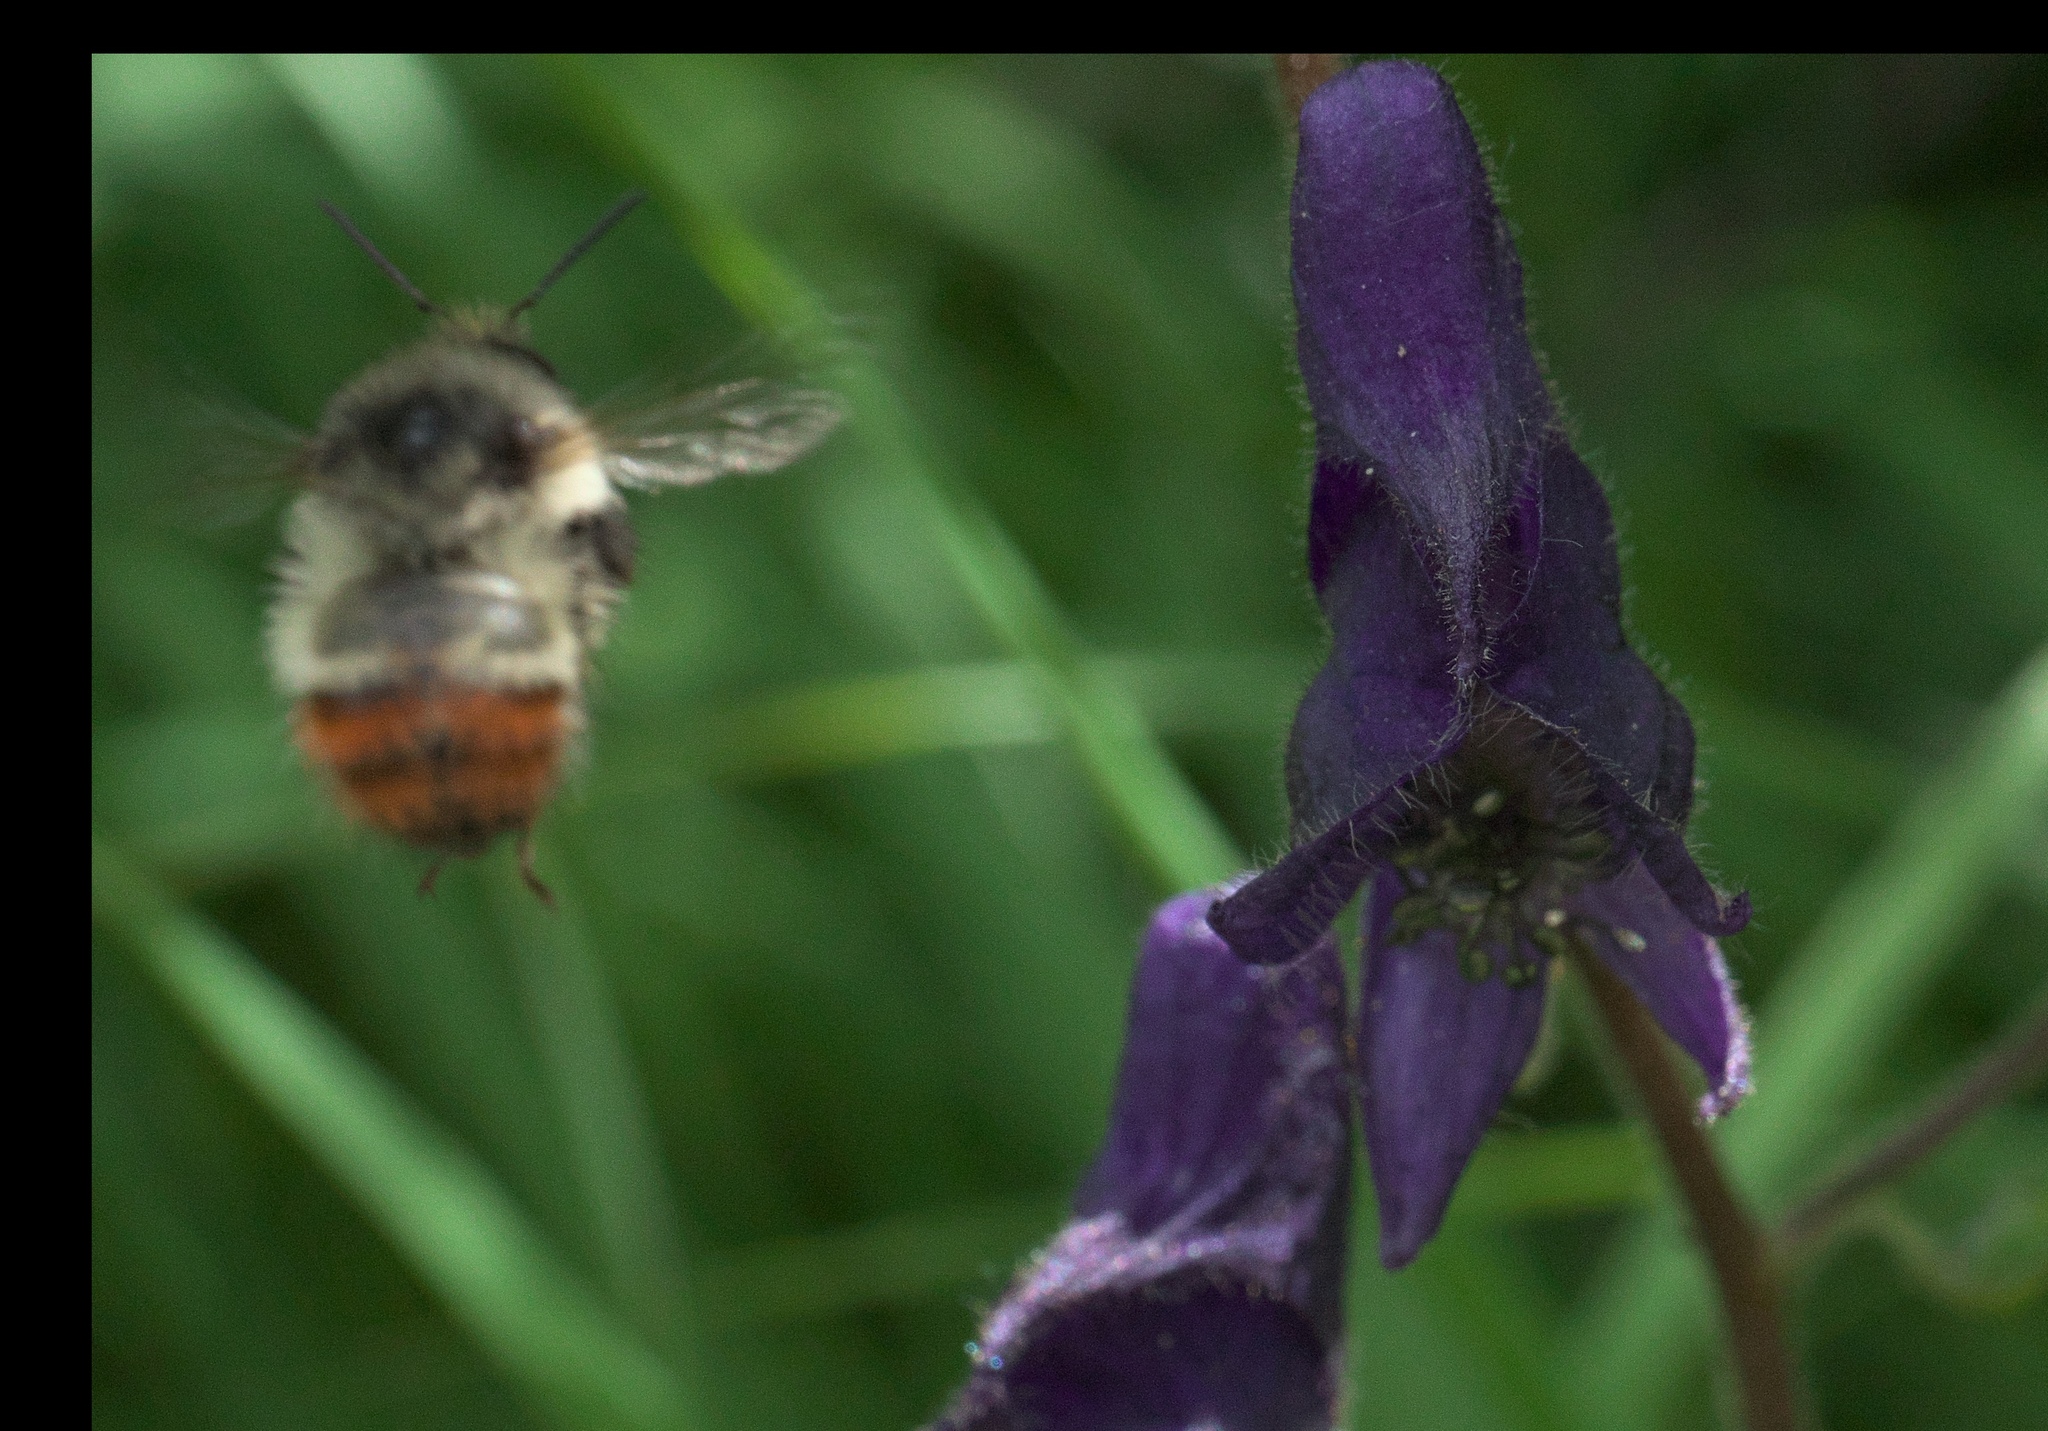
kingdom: Animalia
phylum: Arthropoda
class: Insecta
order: Hymenoptera
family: Apidae
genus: Bombus
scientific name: Bombus flavifrons
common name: Yellow head bumble bee
